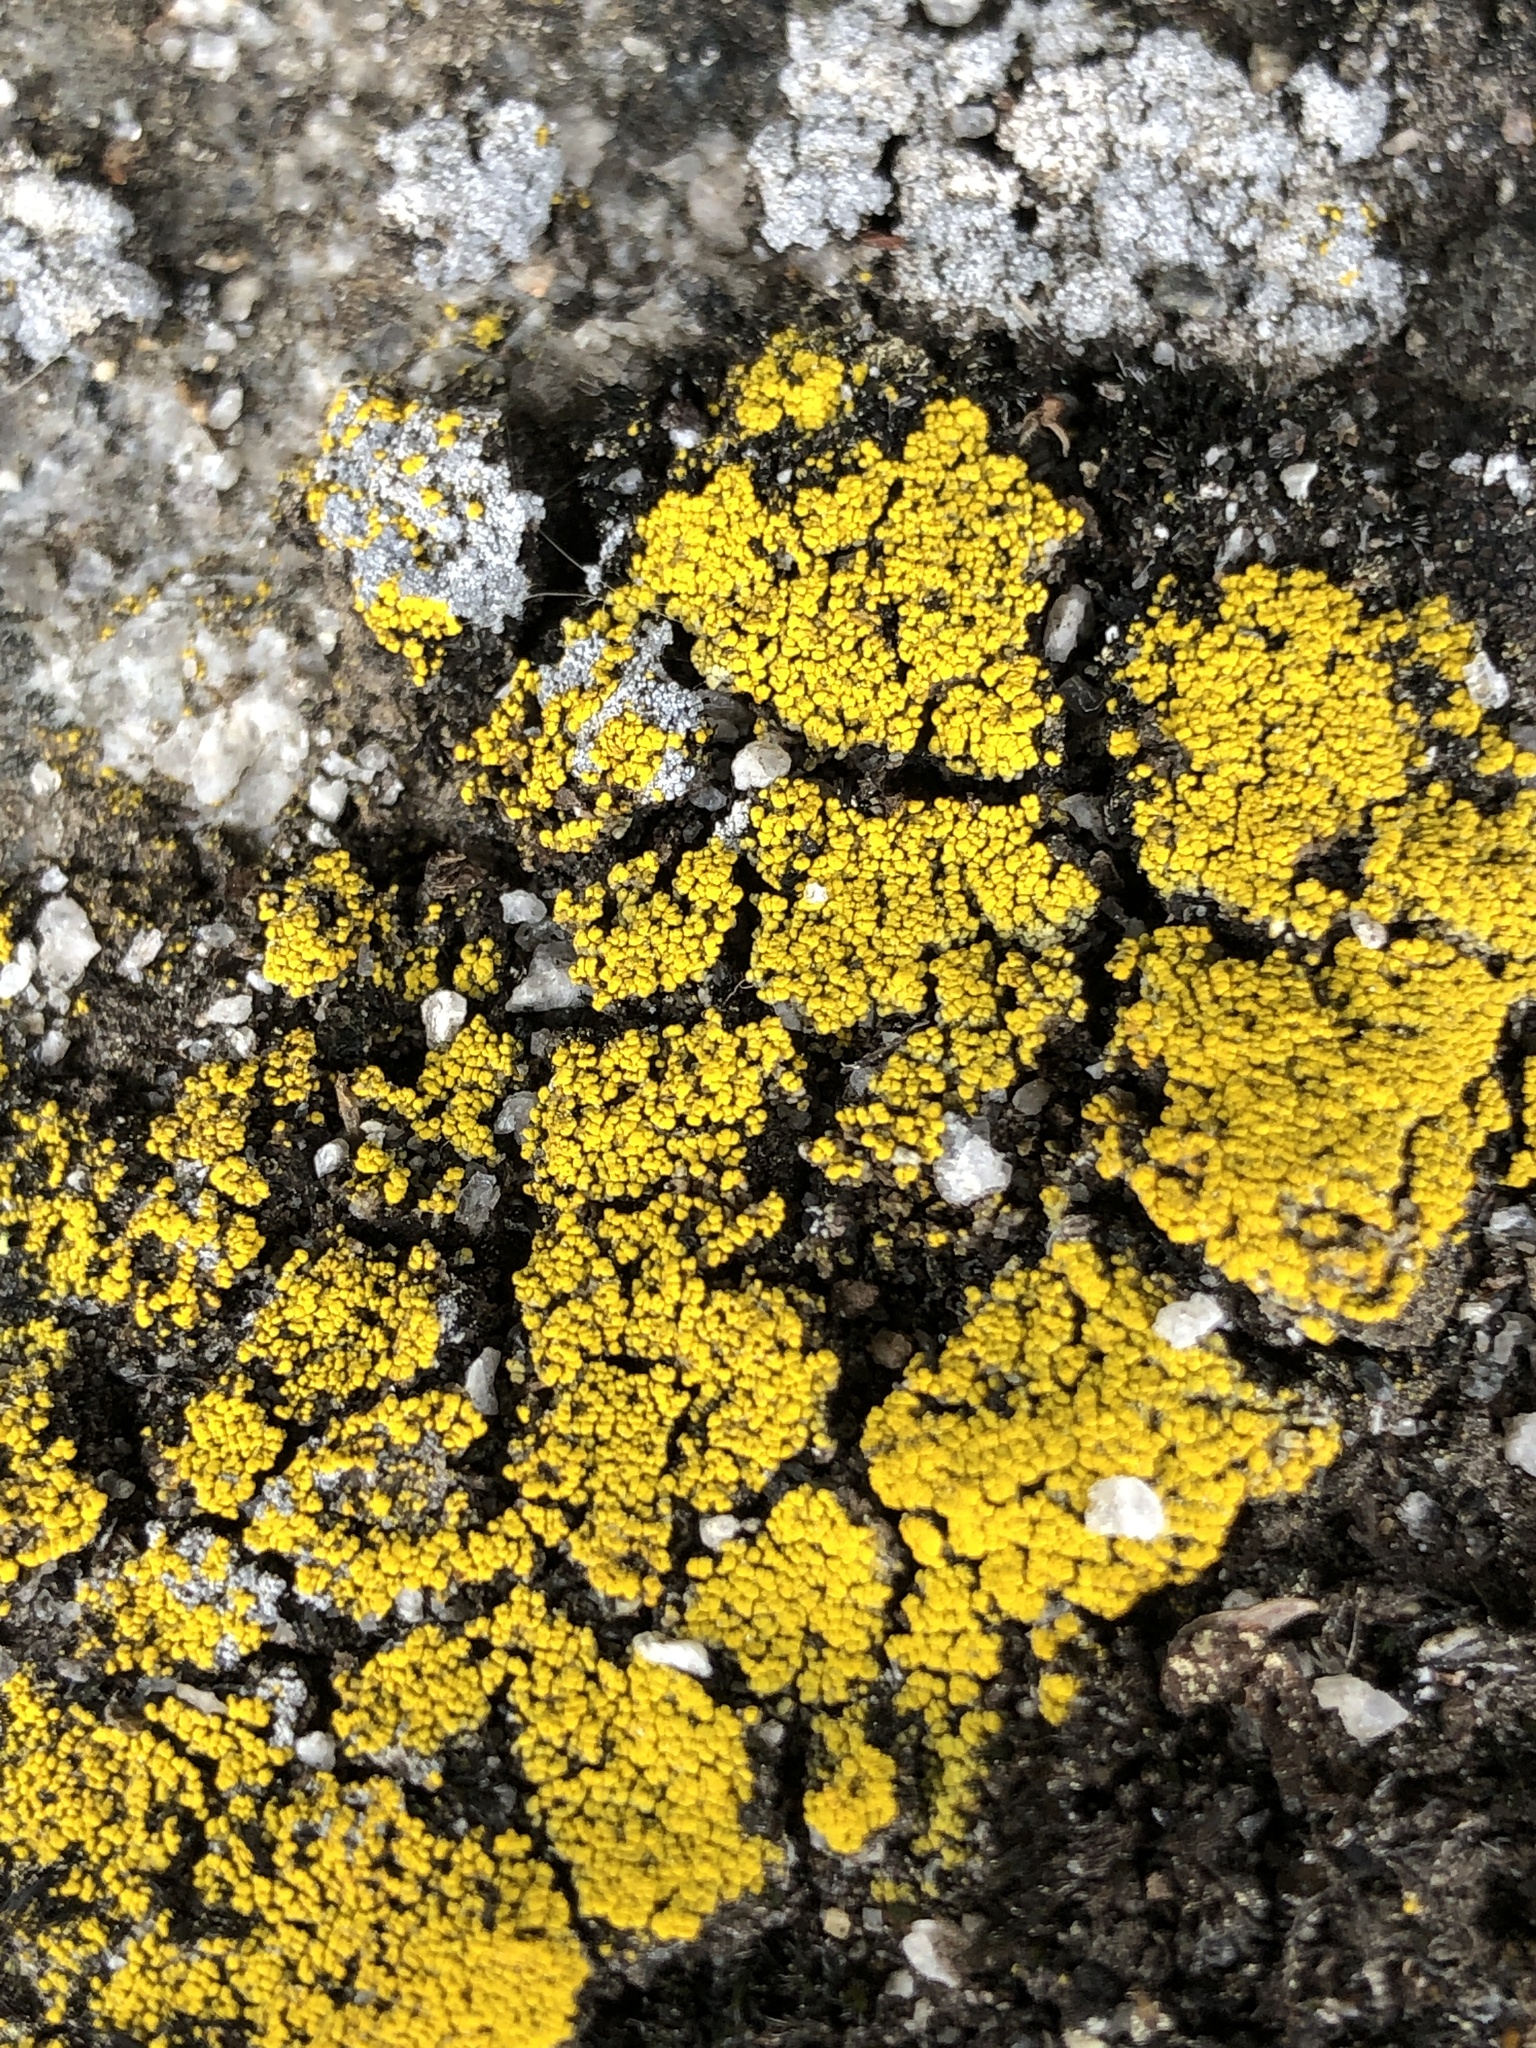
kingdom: Fungi
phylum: Ascomycota
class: Candelariomycetes
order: Candelariales
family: Candelariaceae
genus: Candelariella
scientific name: Candelariella rosulans
